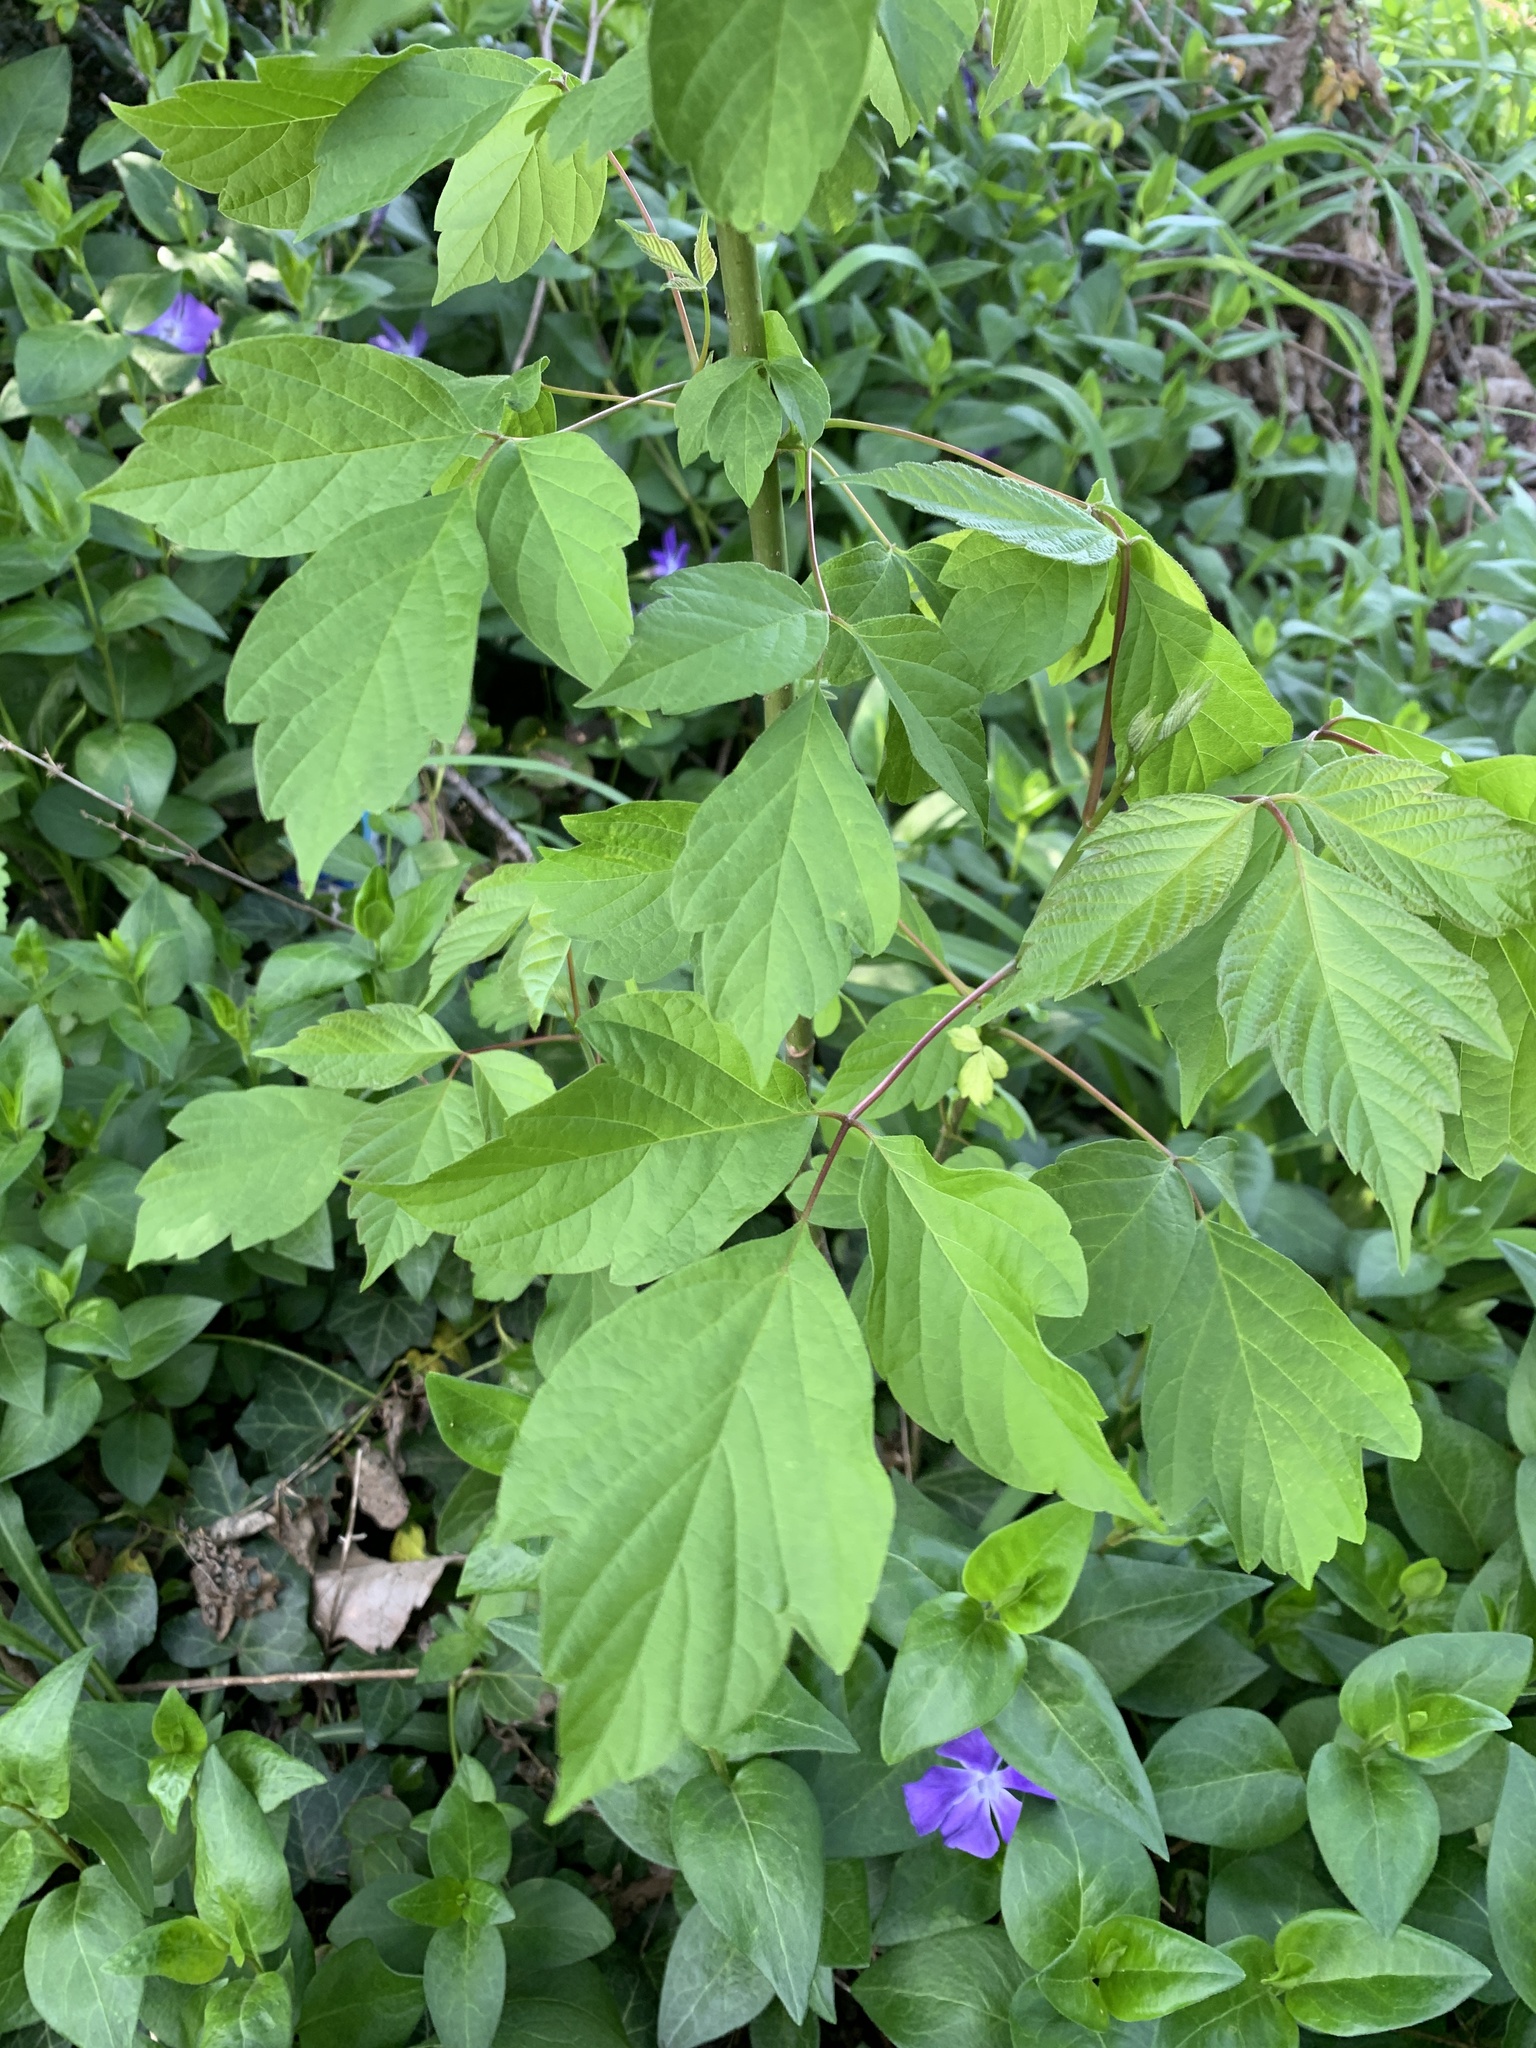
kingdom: Plantae
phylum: Tracheophyta
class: Magnoliopsida
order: Sapindales
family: Sapindaceae
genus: Acer
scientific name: Acer negundo
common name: Ashleaf maple
